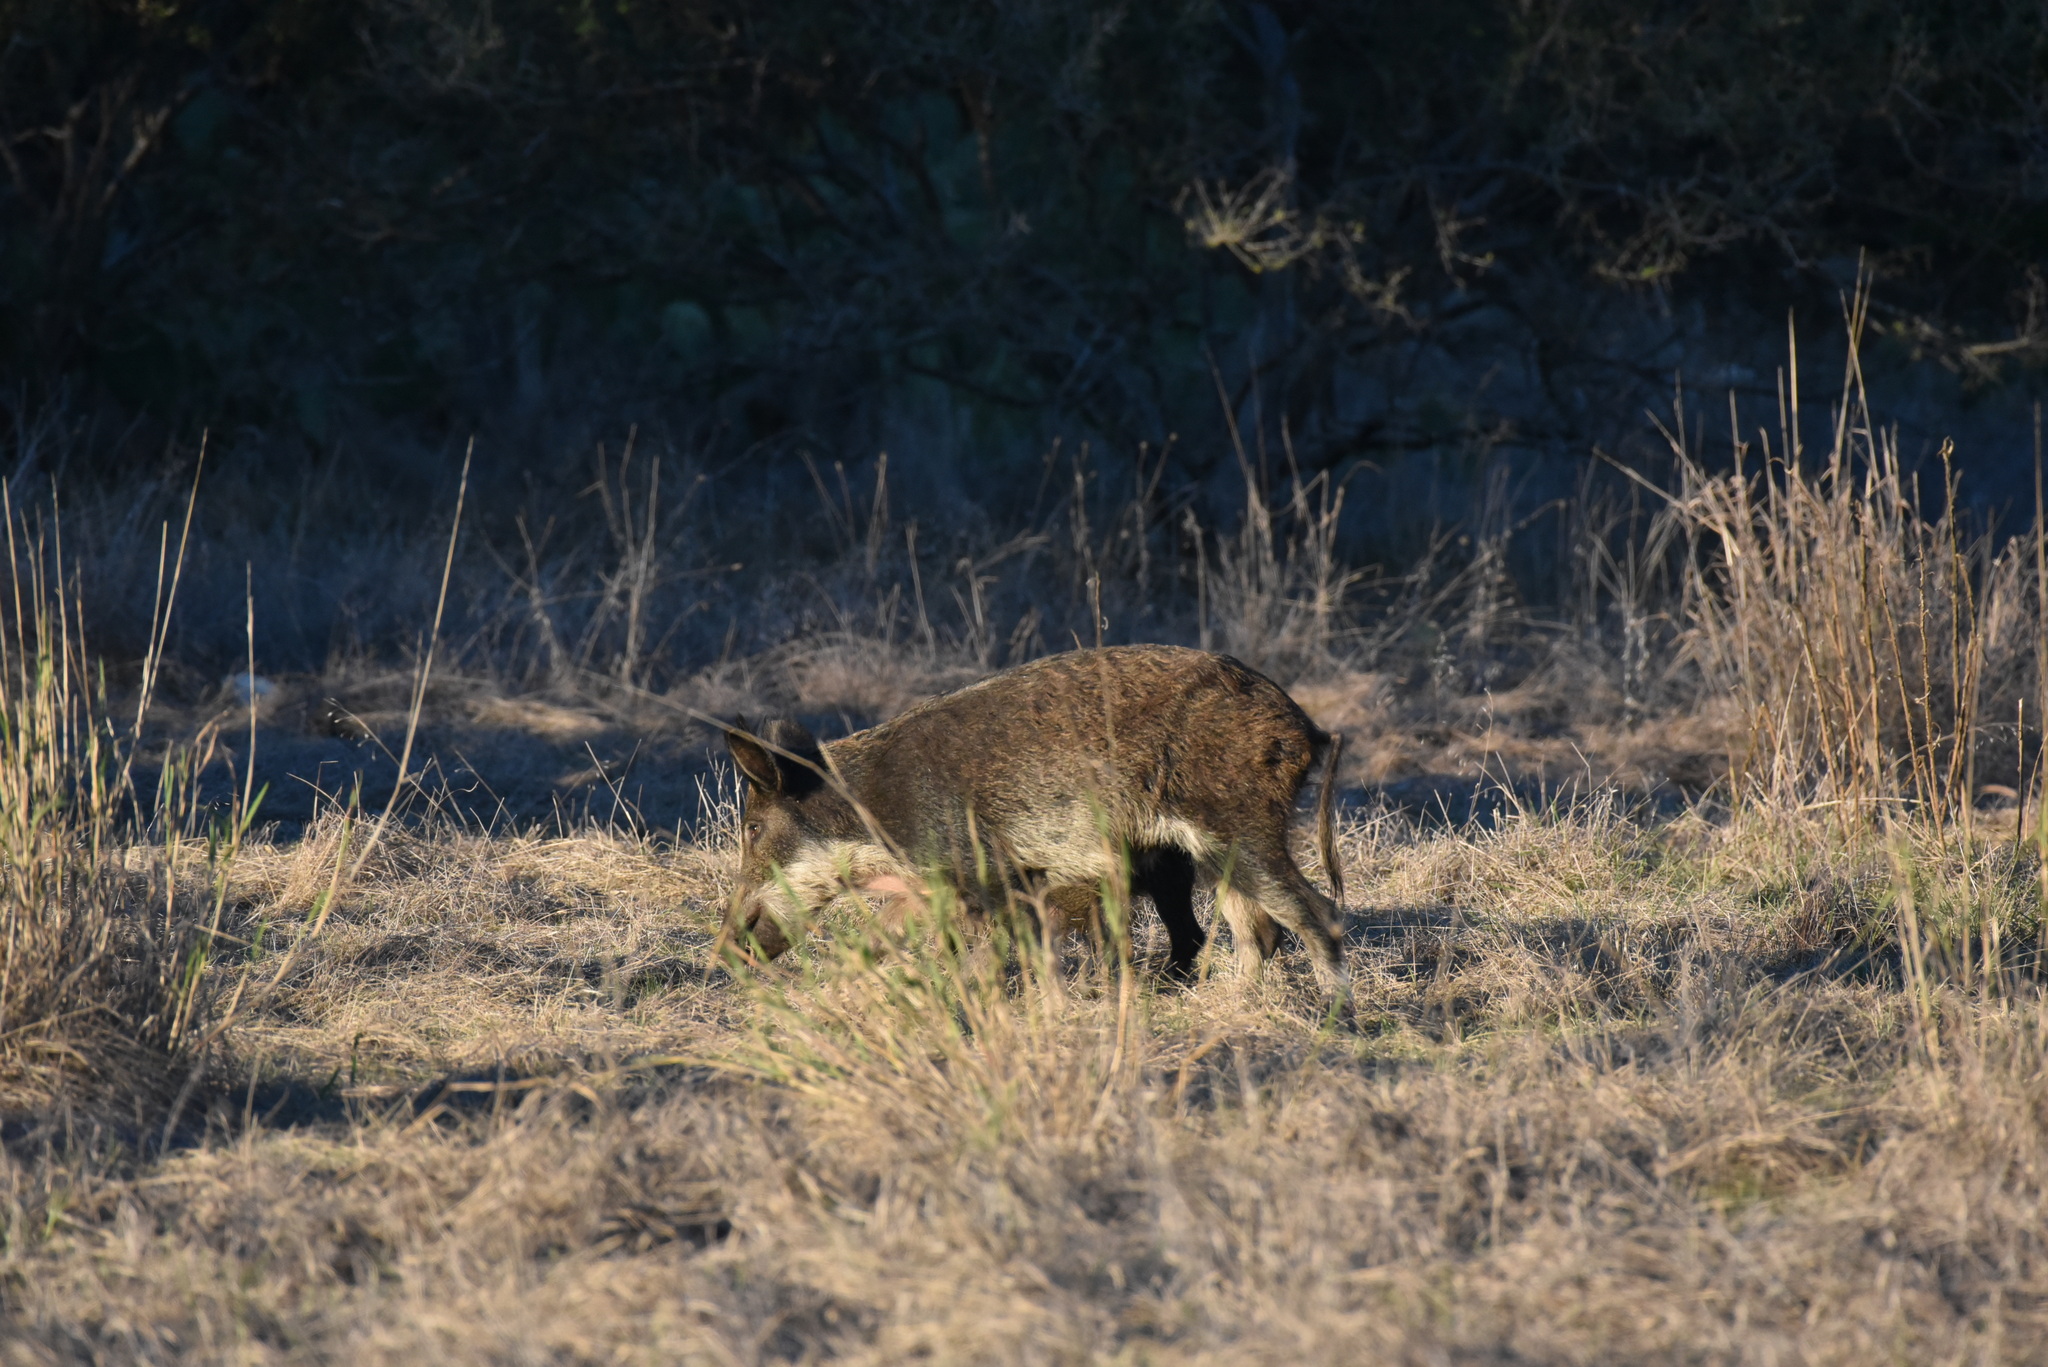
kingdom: Animalia
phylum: Chordata
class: Mammalia
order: Artiodactyla
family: Suidae
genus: Sus
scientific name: Sus scrofa
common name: Wild boar
